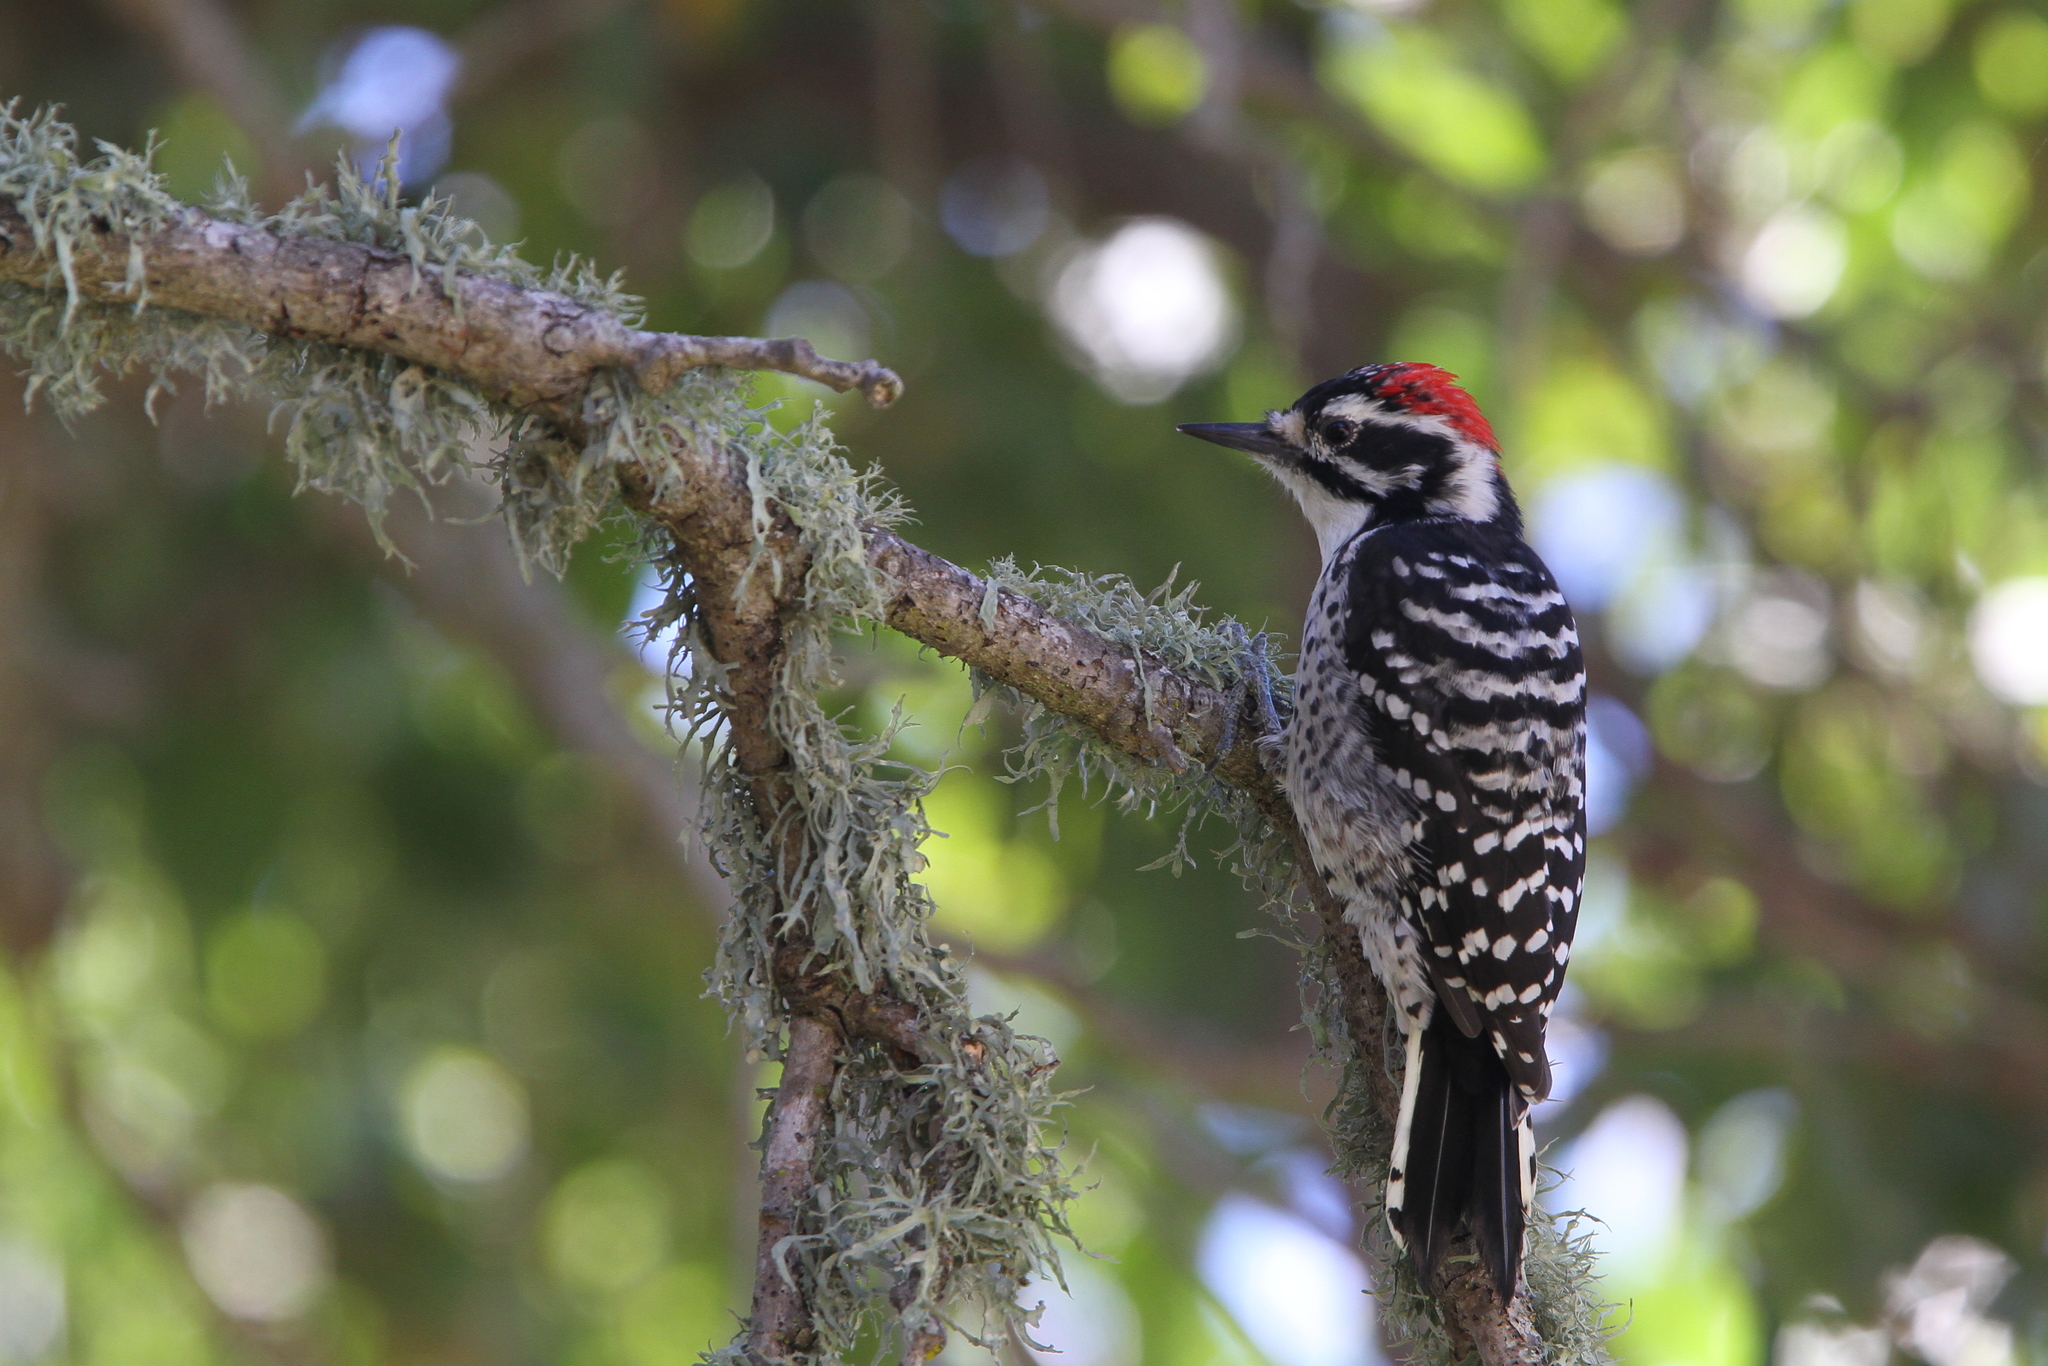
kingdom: Animalia
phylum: Chordata
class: Aves
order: Piciformes
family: Picidae
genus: Dryobates
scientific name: Dryobates nuttallii
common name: Nuttall's woodpecker
